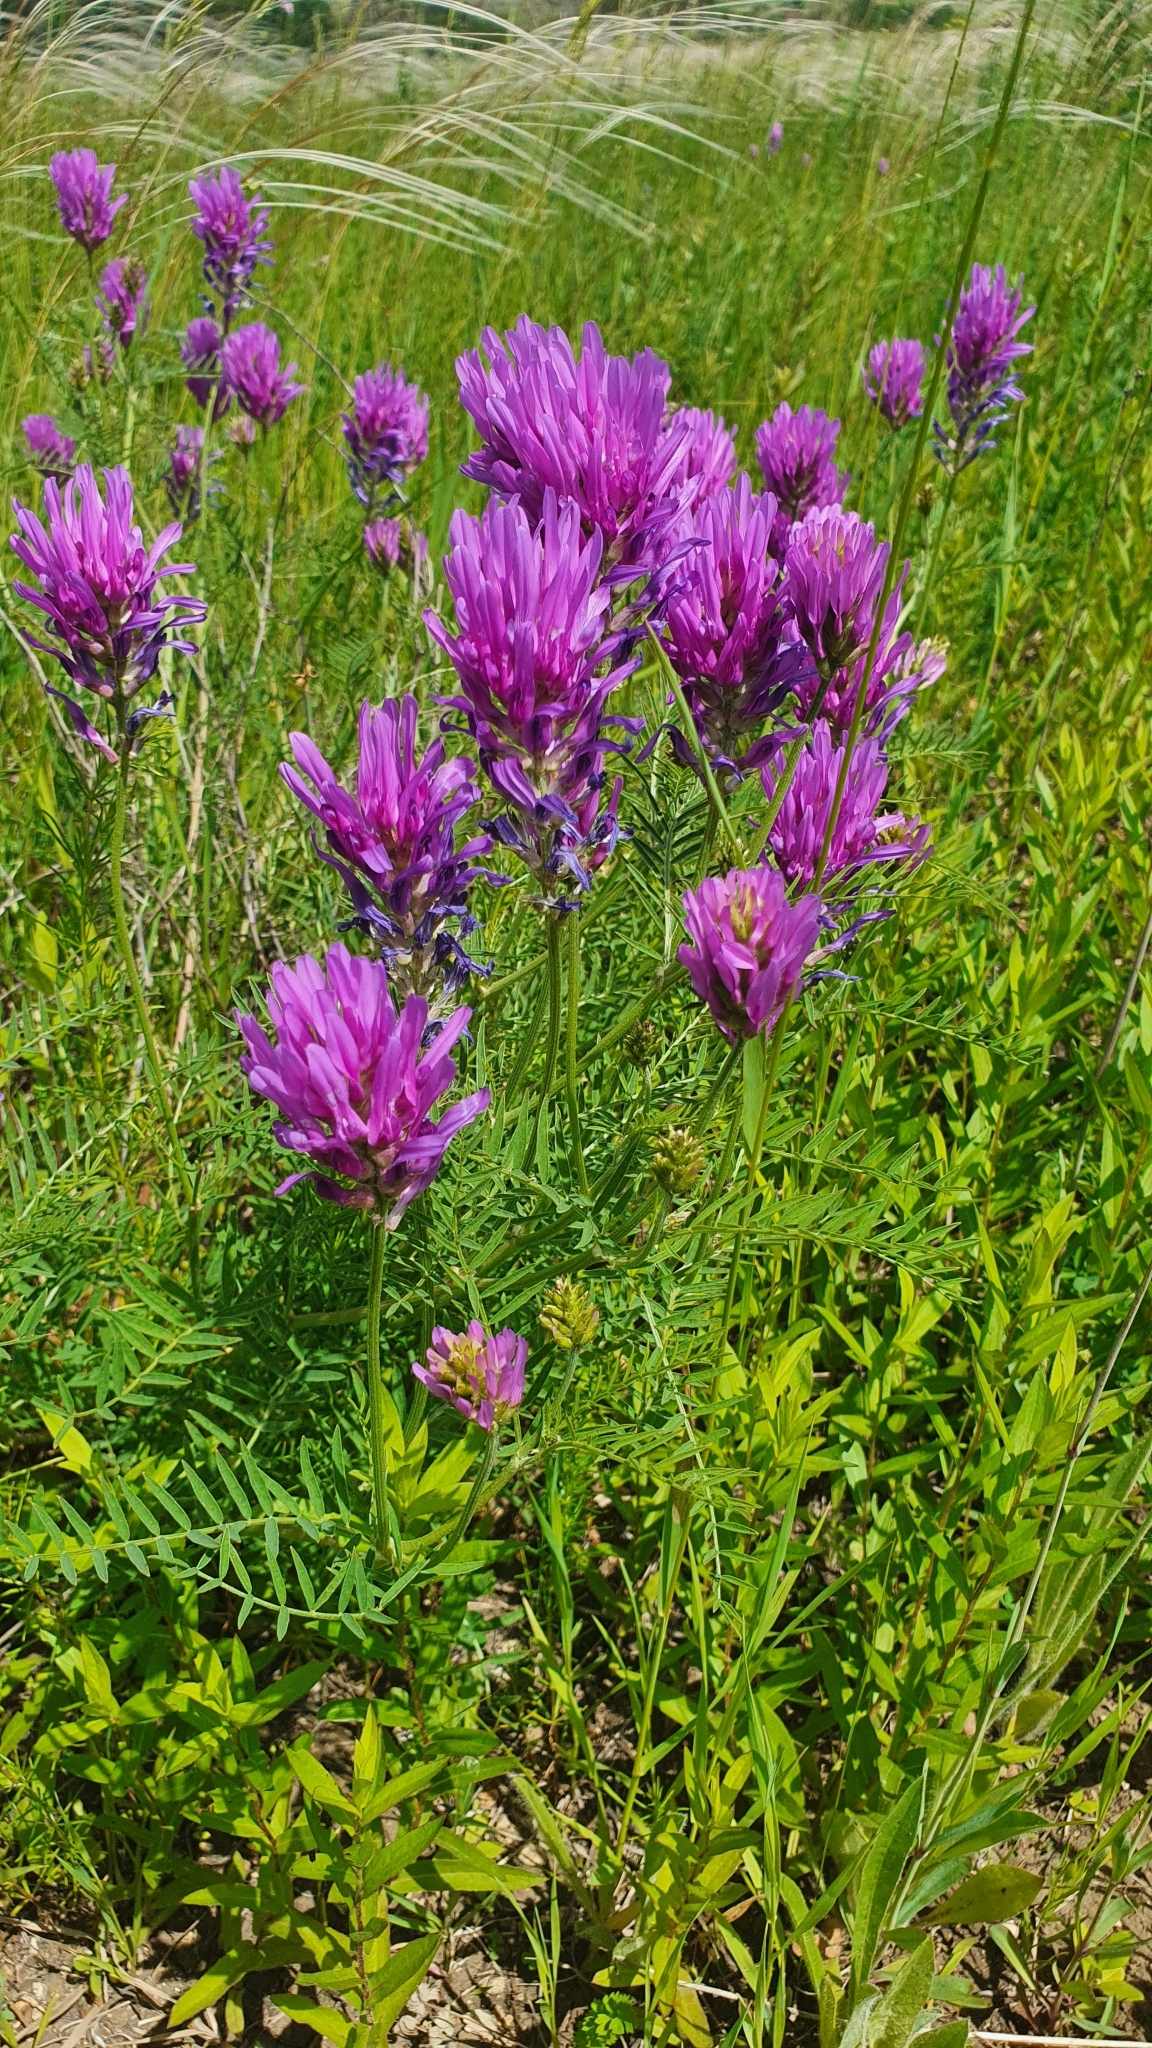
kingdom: Plantae
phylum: Tracheophyta
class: Magnoliopsida
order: Fabales
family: Fabaceae
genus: Astragalus
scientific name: Astragalus onobrychis
